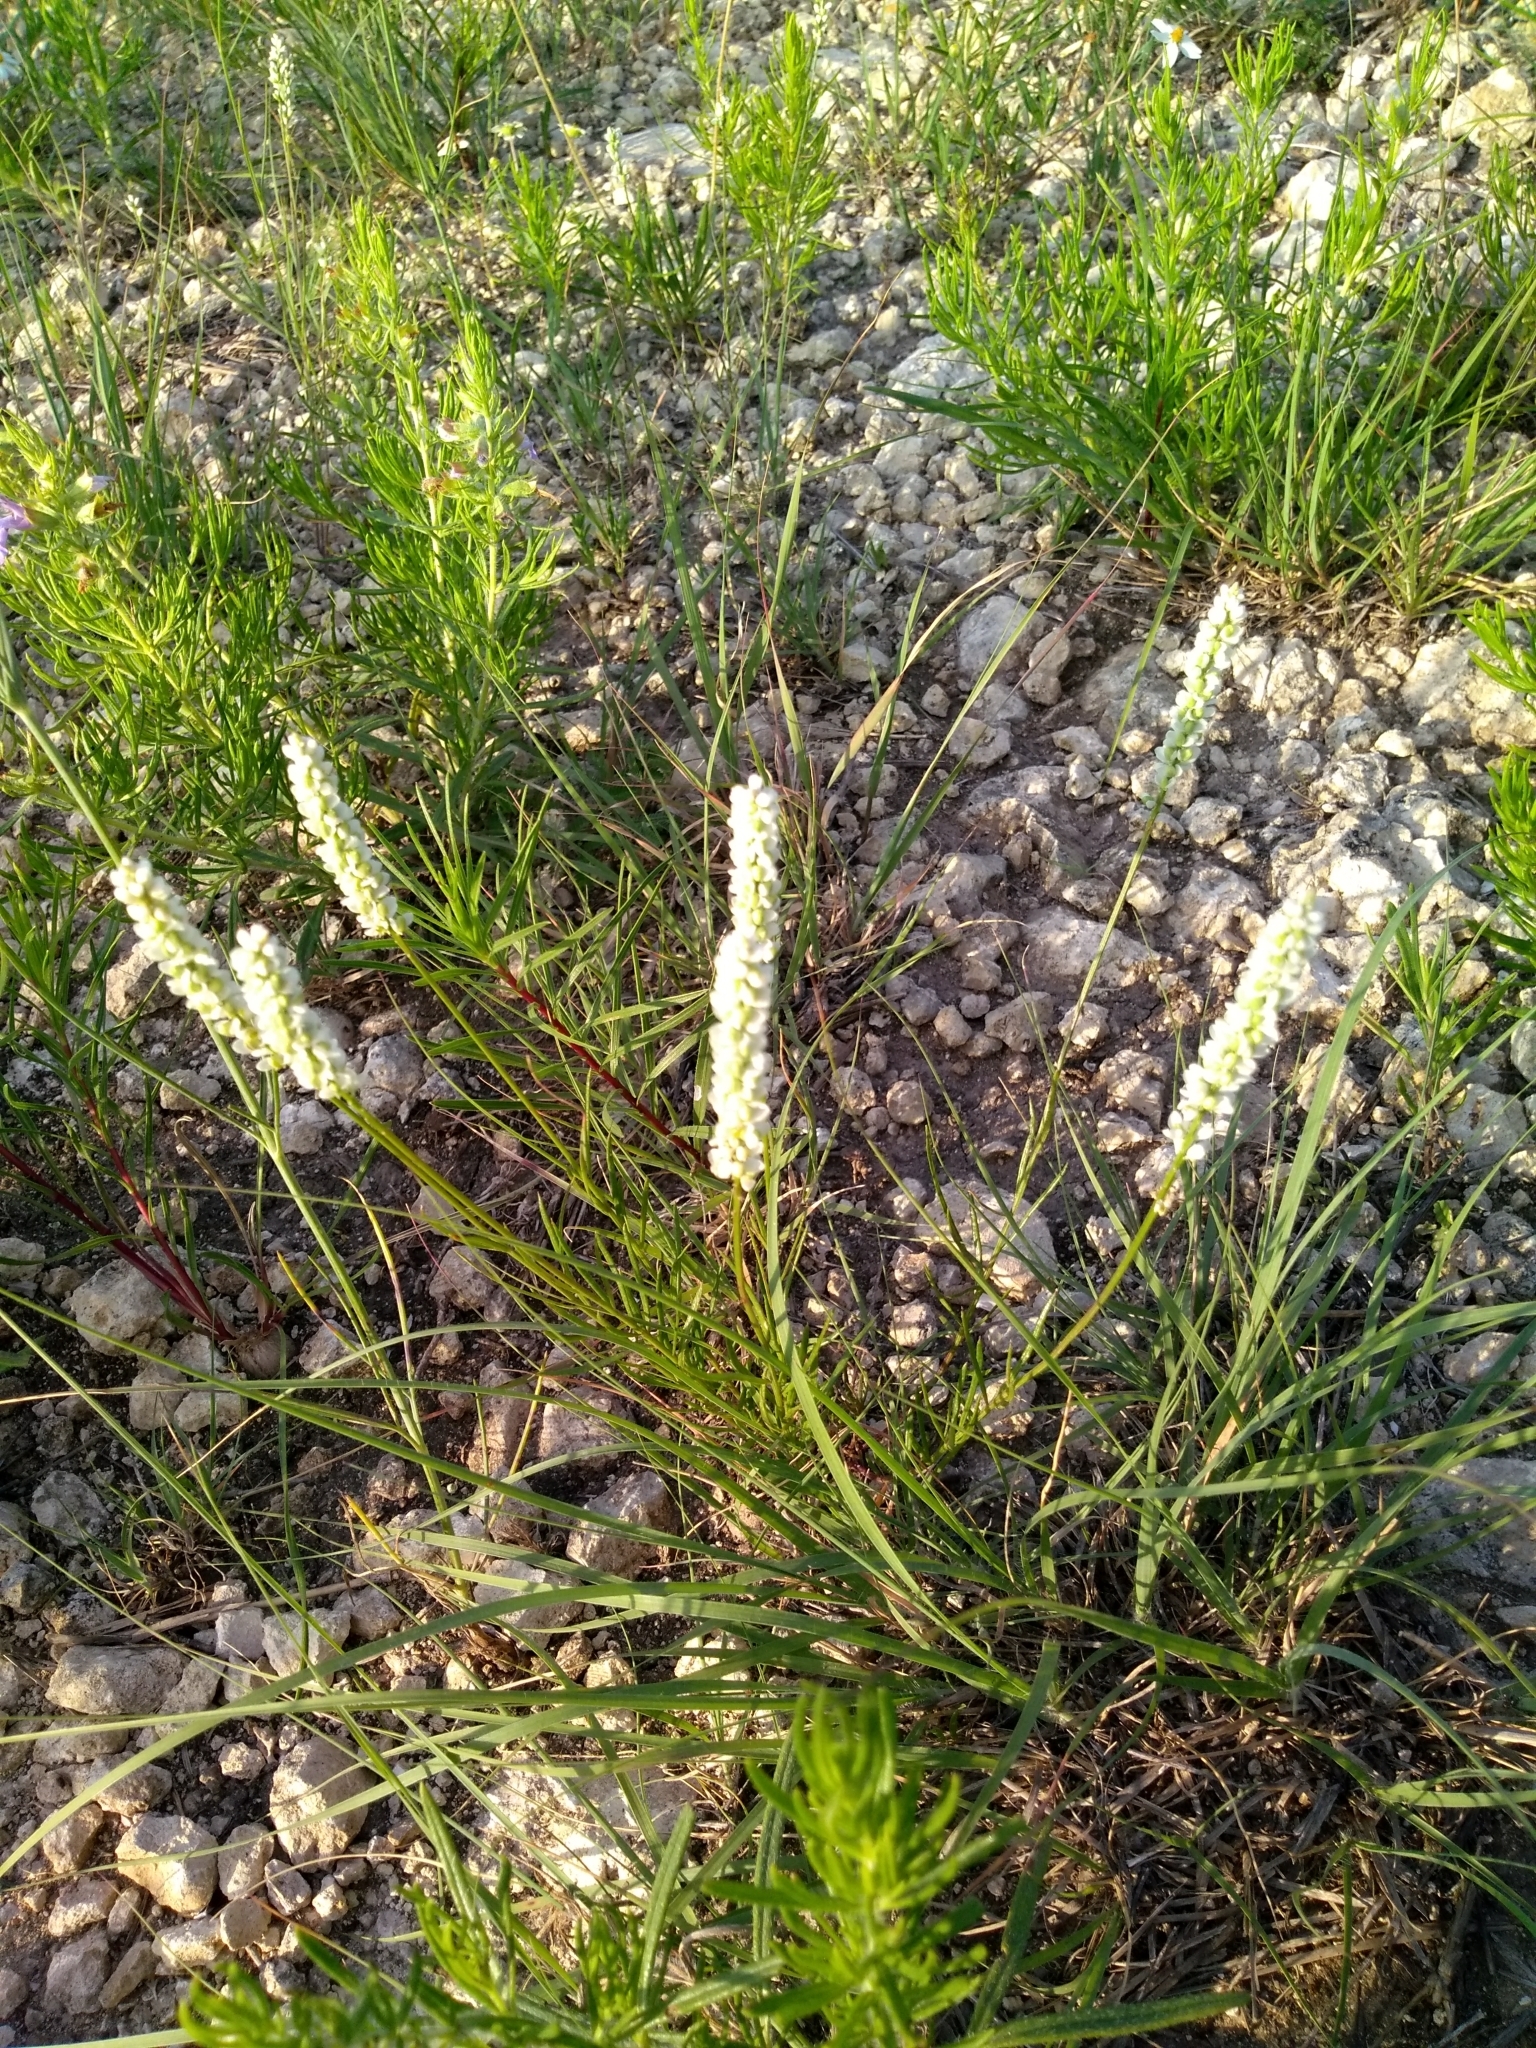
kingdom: Plantae
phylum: Tracheophyta
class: Magnoliopsida
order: Fabales
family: Polygalaceae
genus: Polygala
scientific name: Polygala alba
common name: White milkwort
